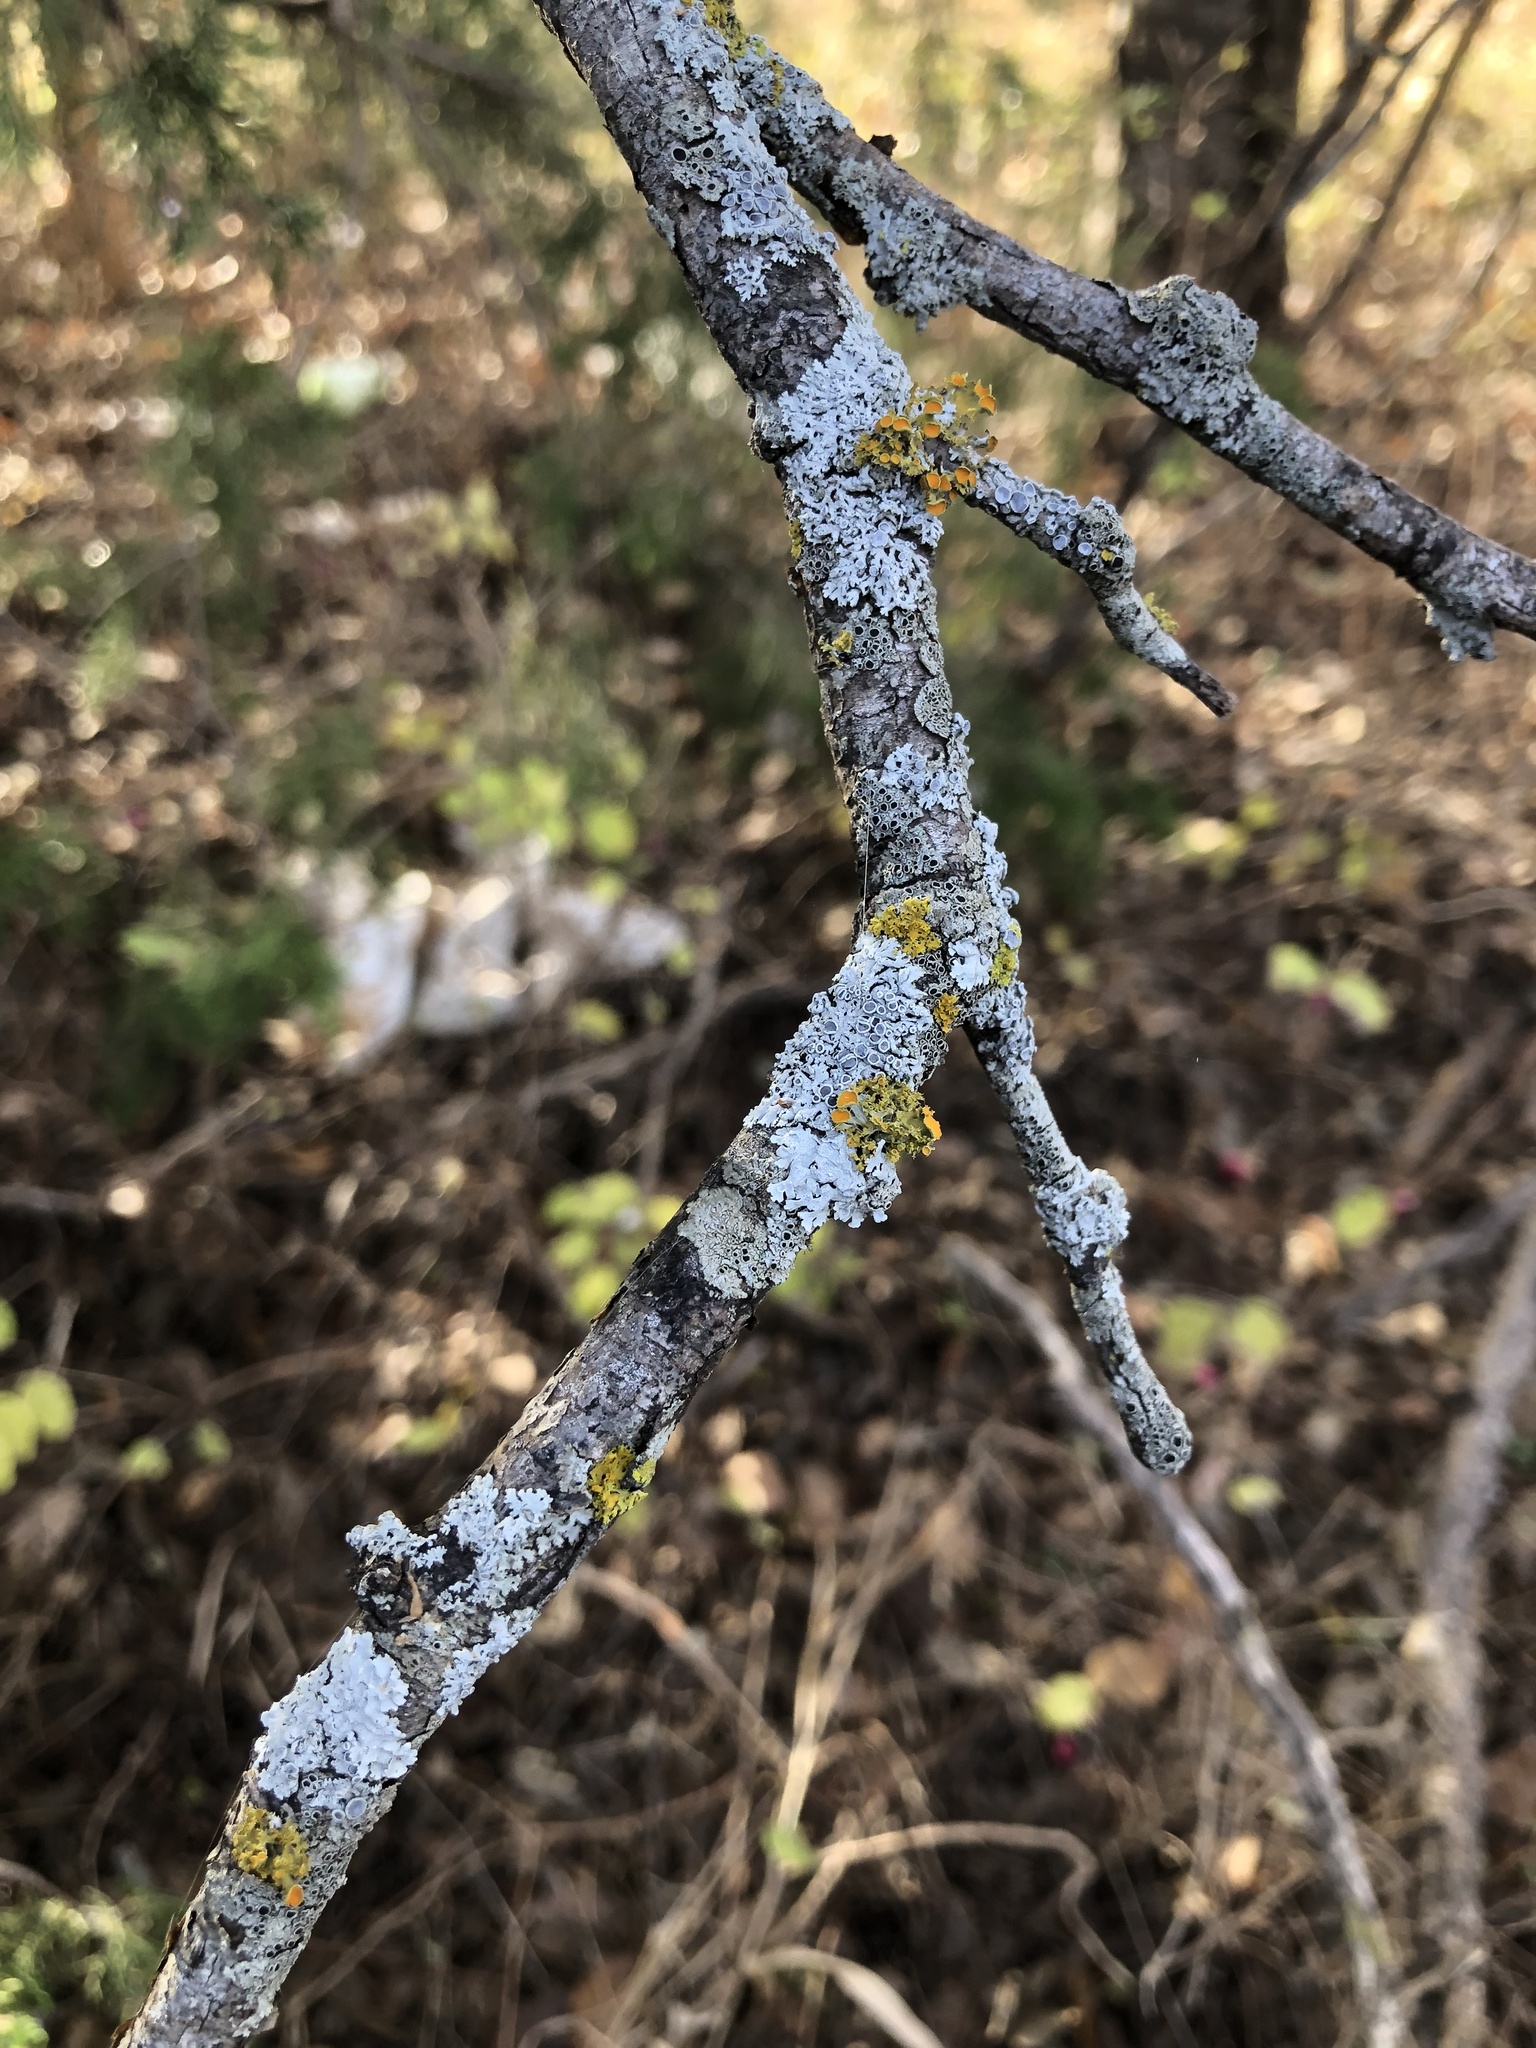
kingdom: Fungi
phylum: Ascomycota
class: Lecanoromycetes
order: Teloschistales
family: Teloschistaceae
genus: Niorma
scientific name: Niorma chrysophthalma
